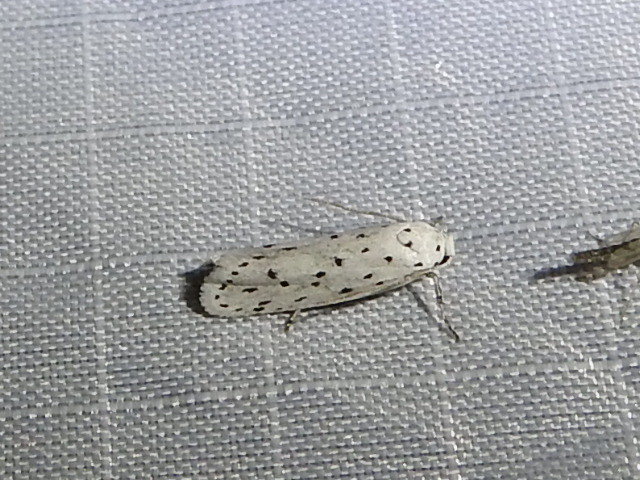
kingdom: Animalia
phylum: Arthropoda
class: Insecta
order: Lepidoptera
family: Ethmiidae
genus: Ethmia
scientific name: Ethmia prattiella
